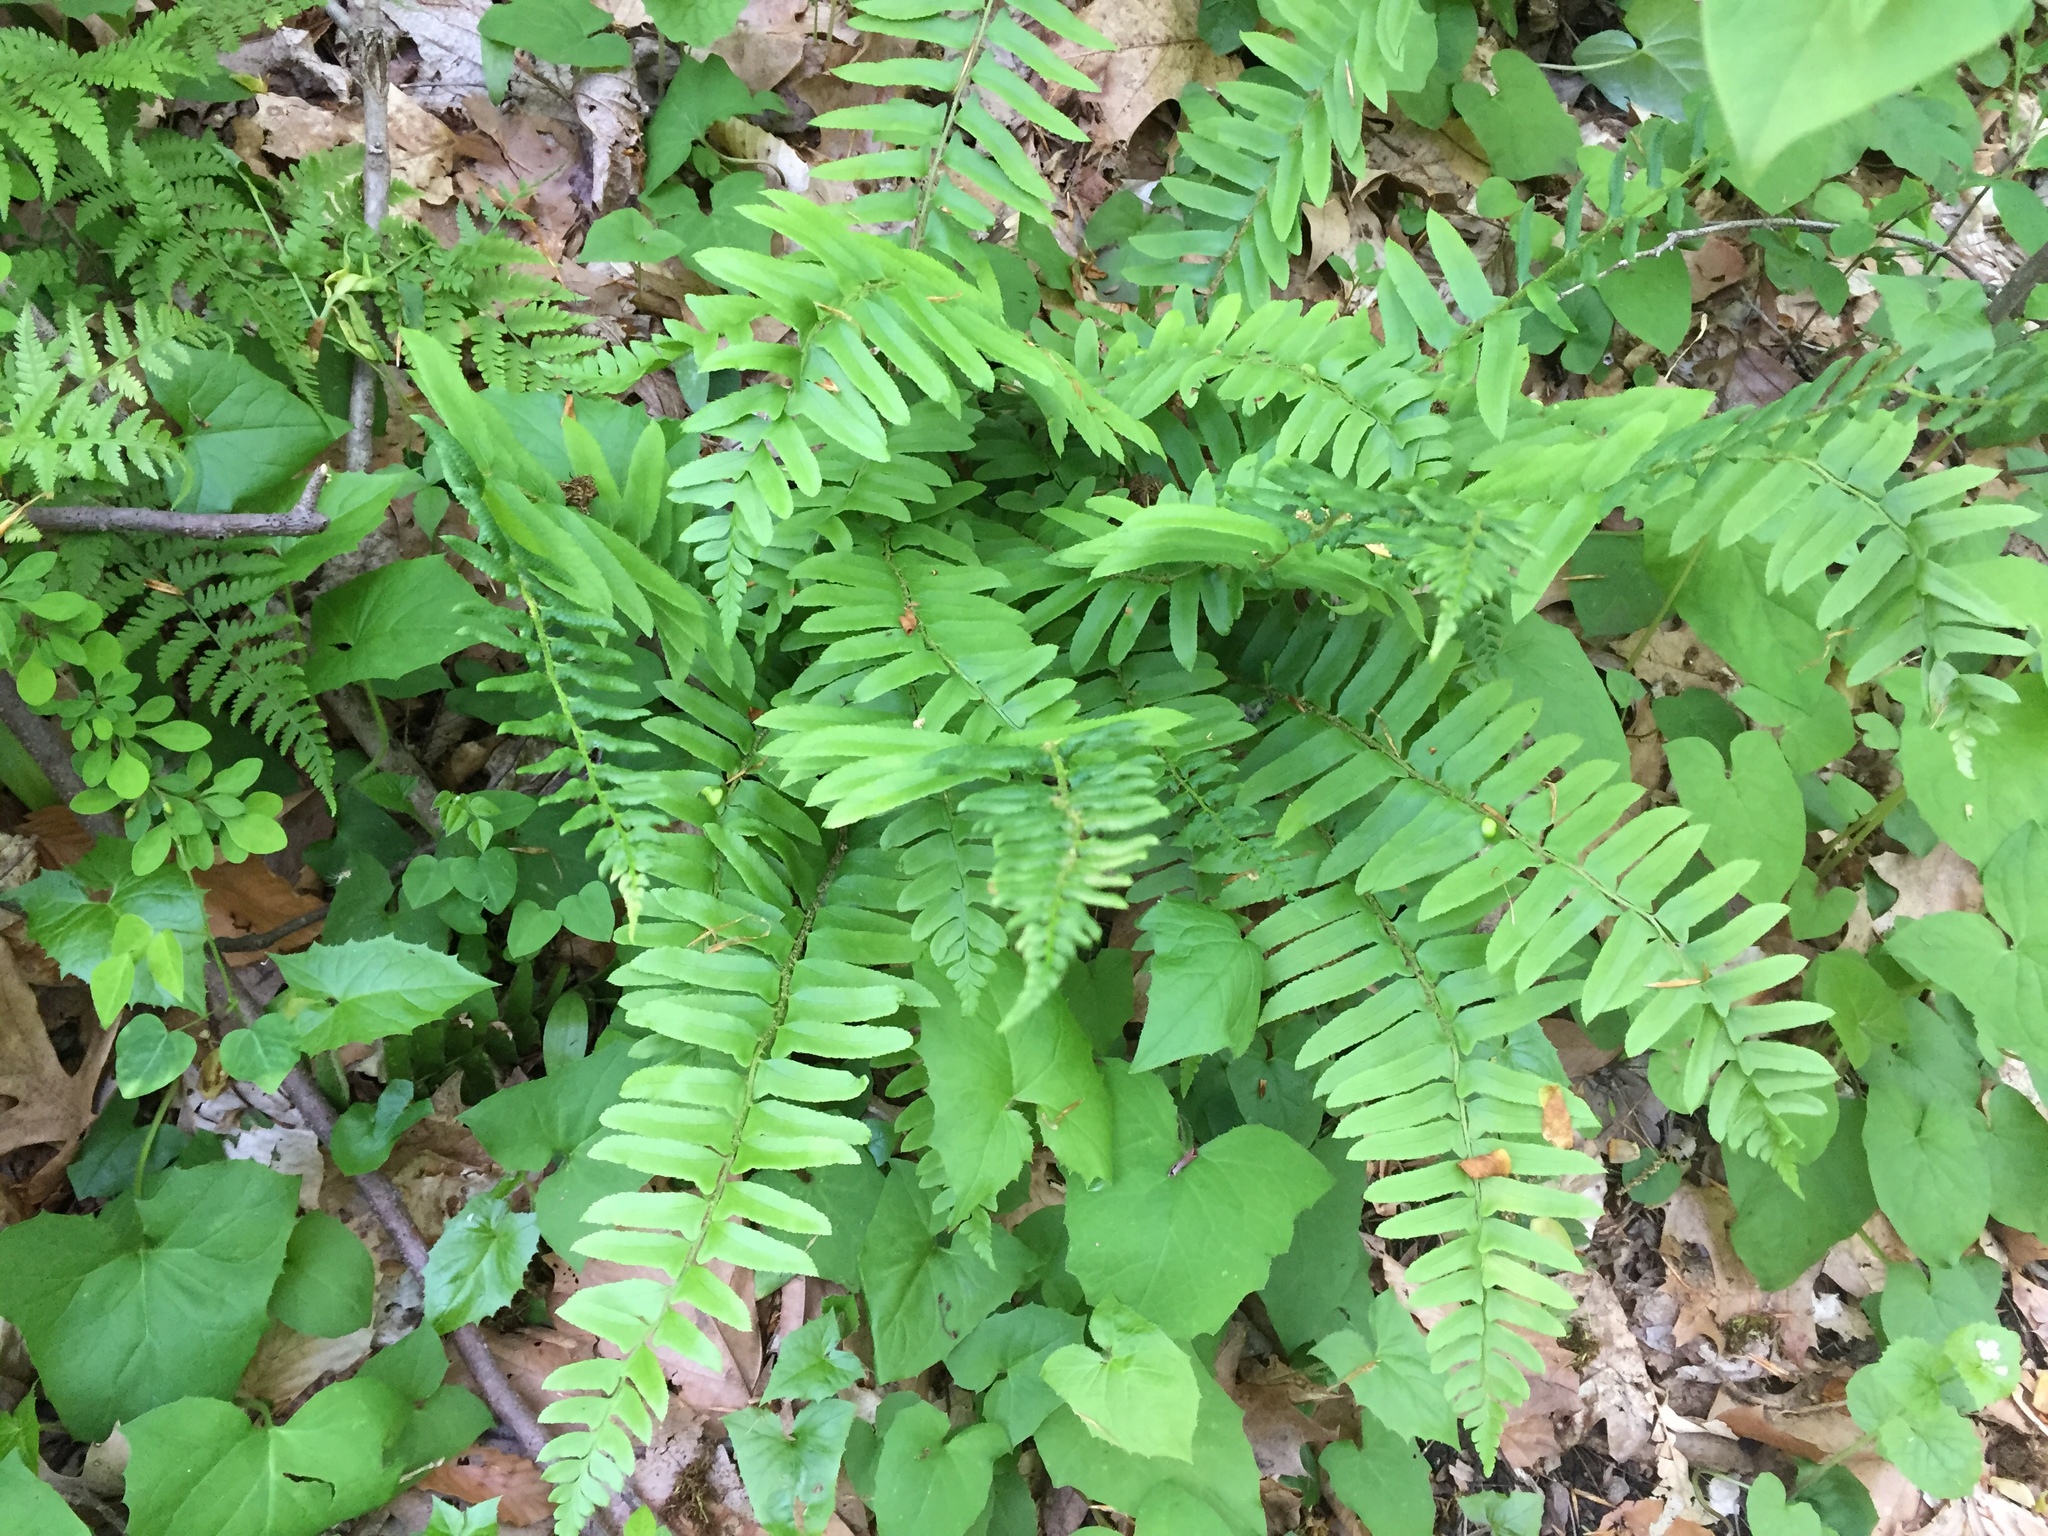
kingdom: Plantae
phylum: Tracheophyta
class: Polypodiopsida
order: Polypodiales
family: Dryopteridaceae
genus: Polystichum
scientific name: Polystichum acrostichoides
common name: Christmas fern
